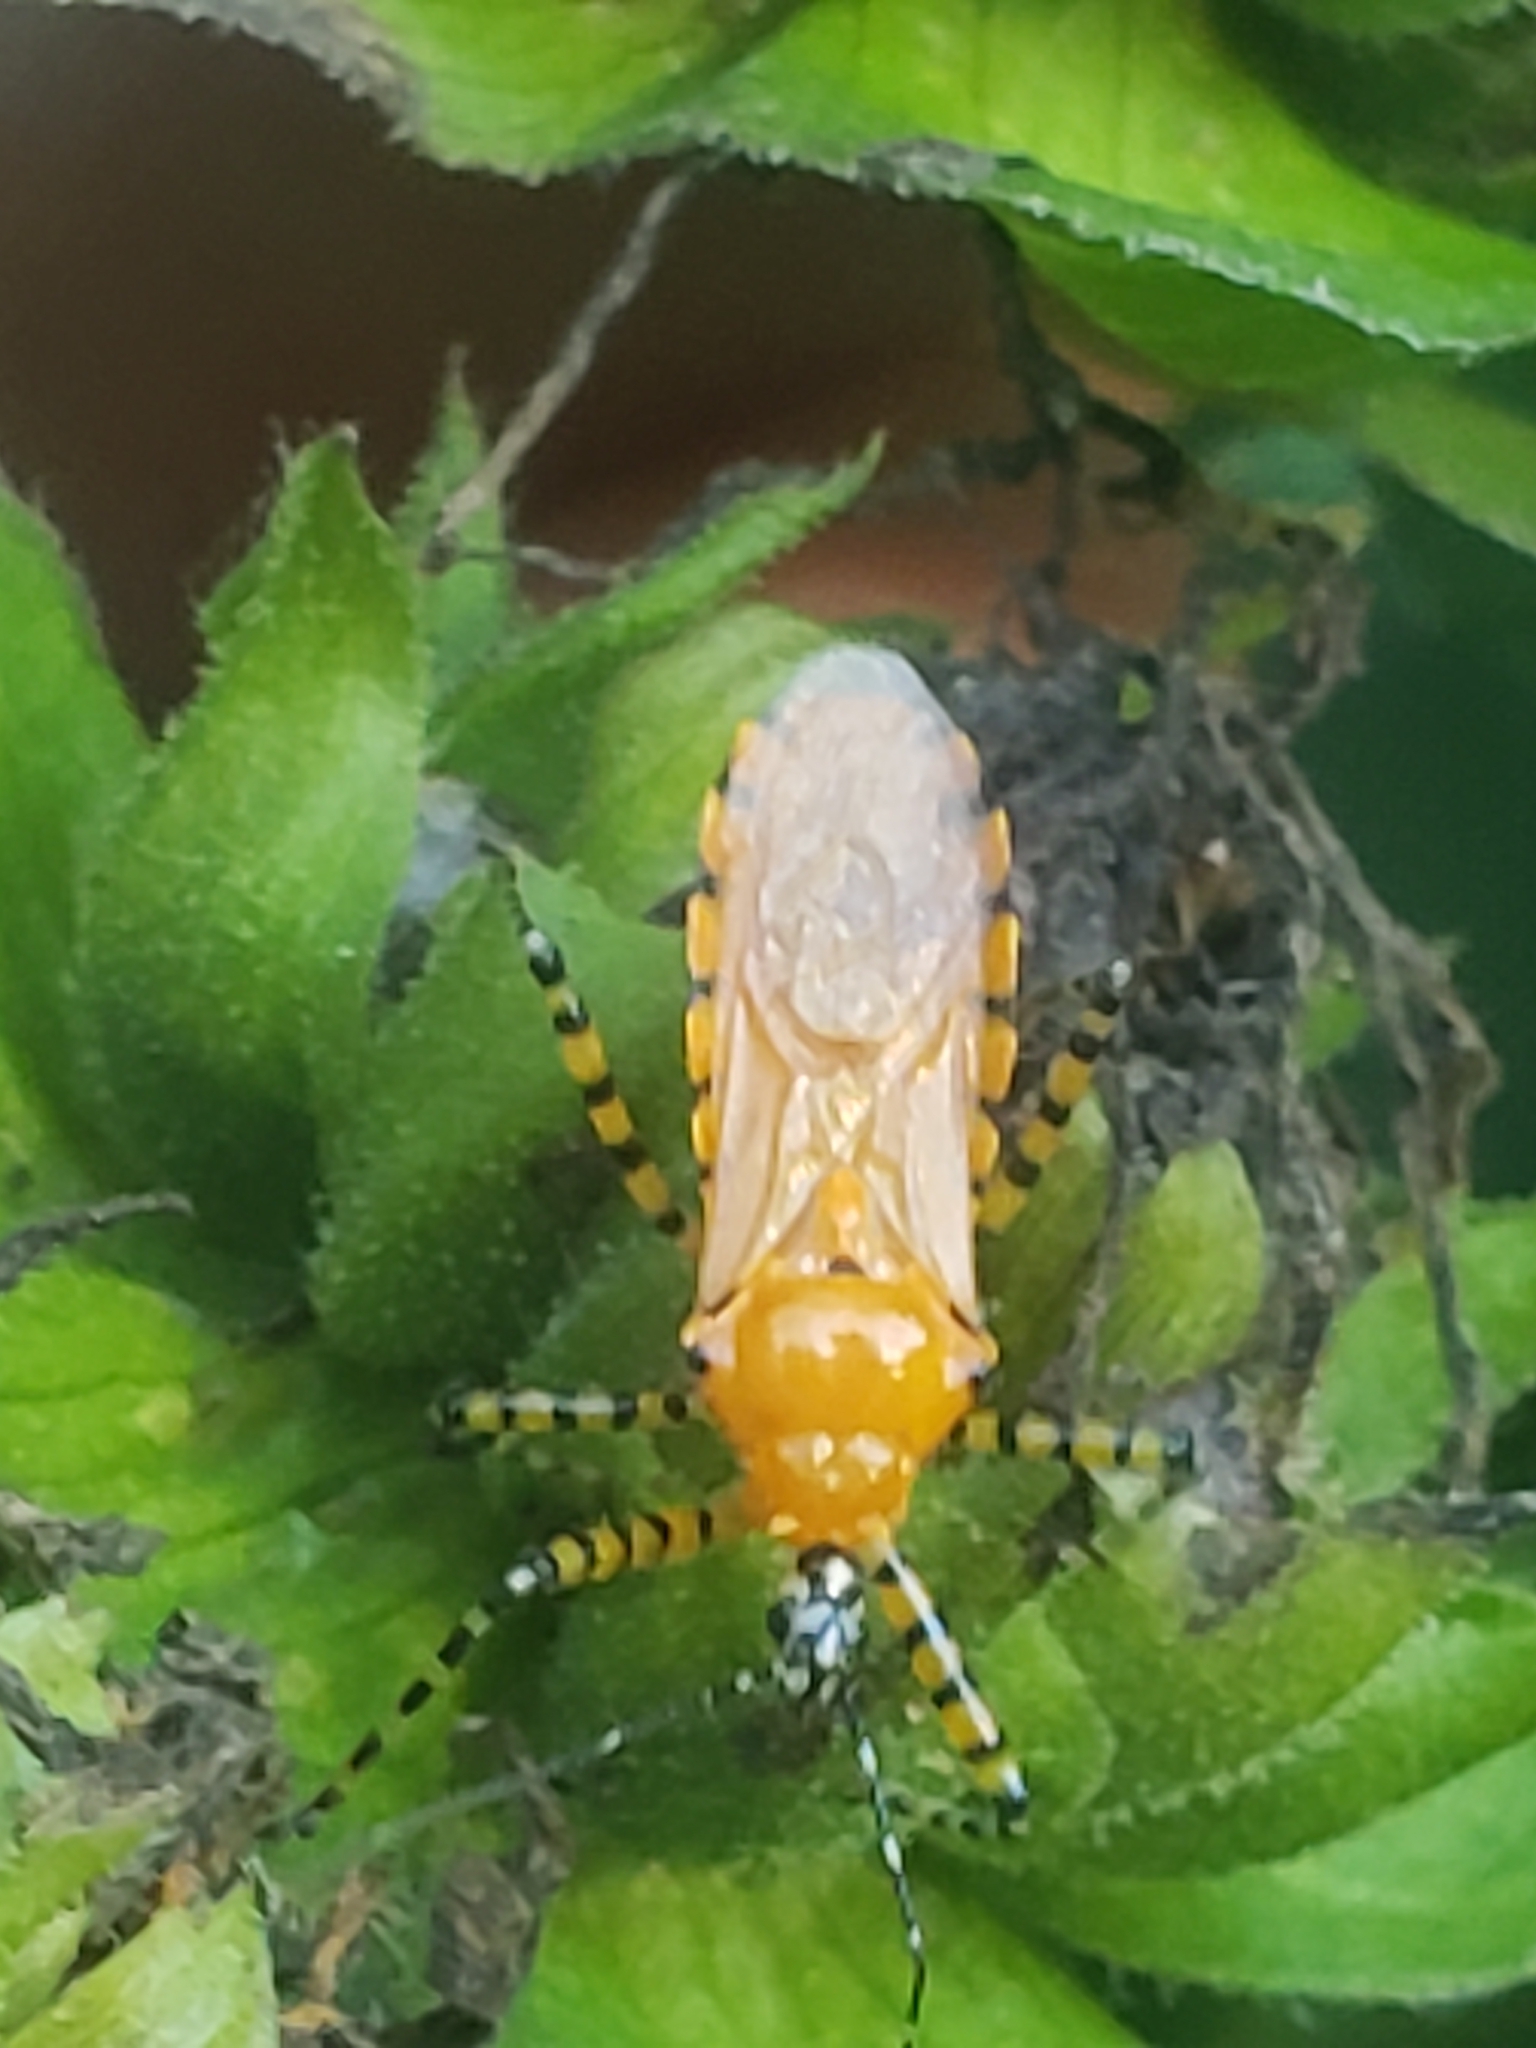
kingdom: Animalia
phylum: Arthropoda
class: Insecta
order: Hemiptera
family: Reduviidae
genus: Pselliopus
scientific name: Pselliopus barberi
